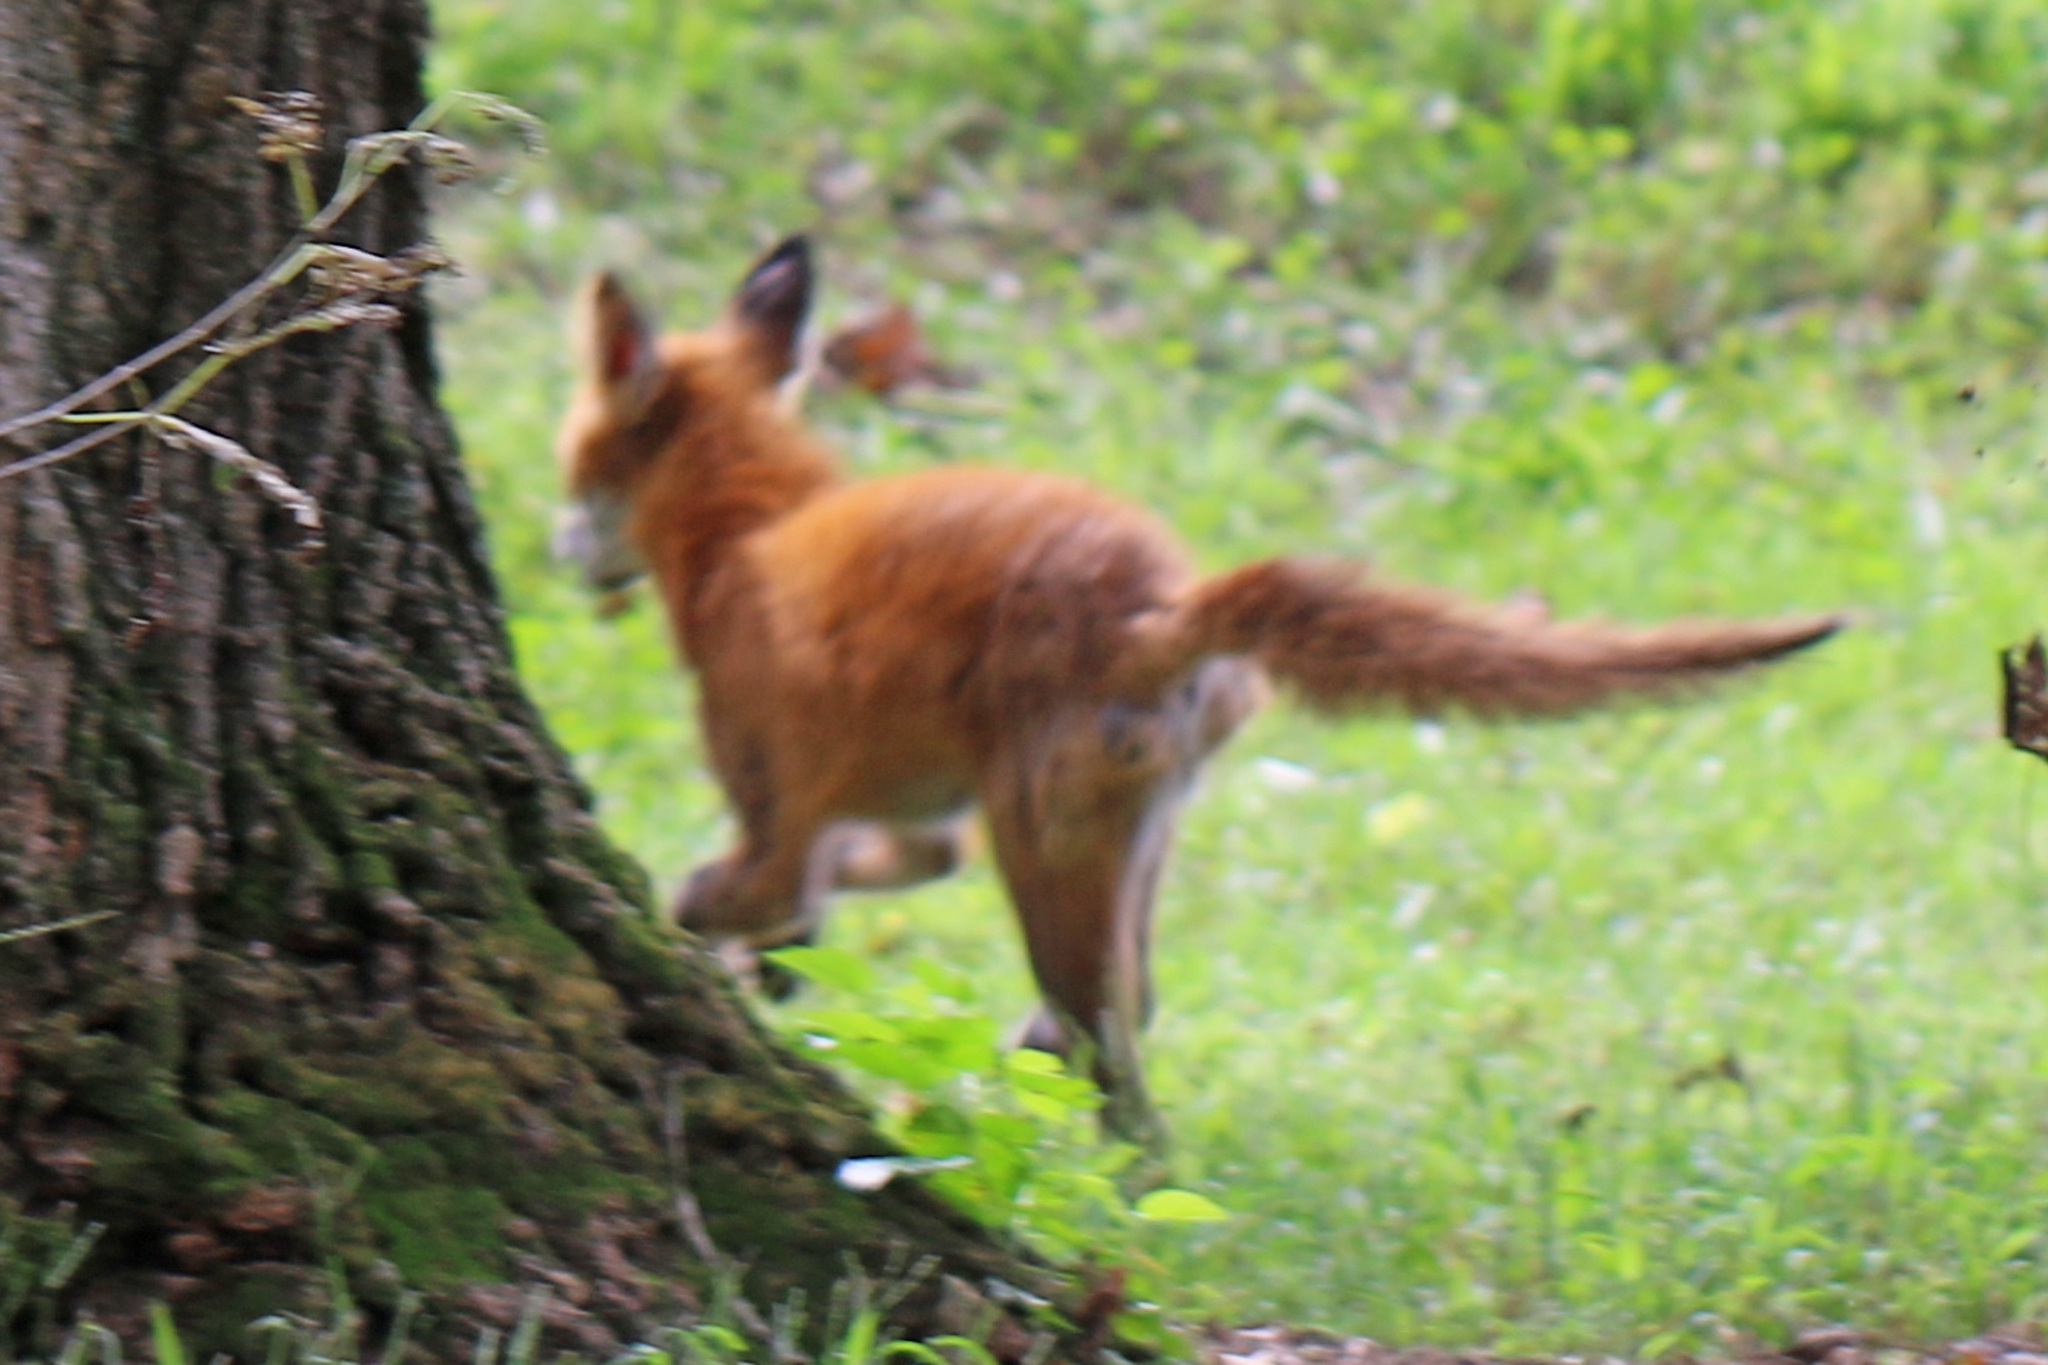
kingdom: Animalia
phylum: Chordata
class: Mammalia
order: Carnivora
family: Canidae
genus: Vulpes
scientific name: Vulpes vulpes
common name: Red fox
